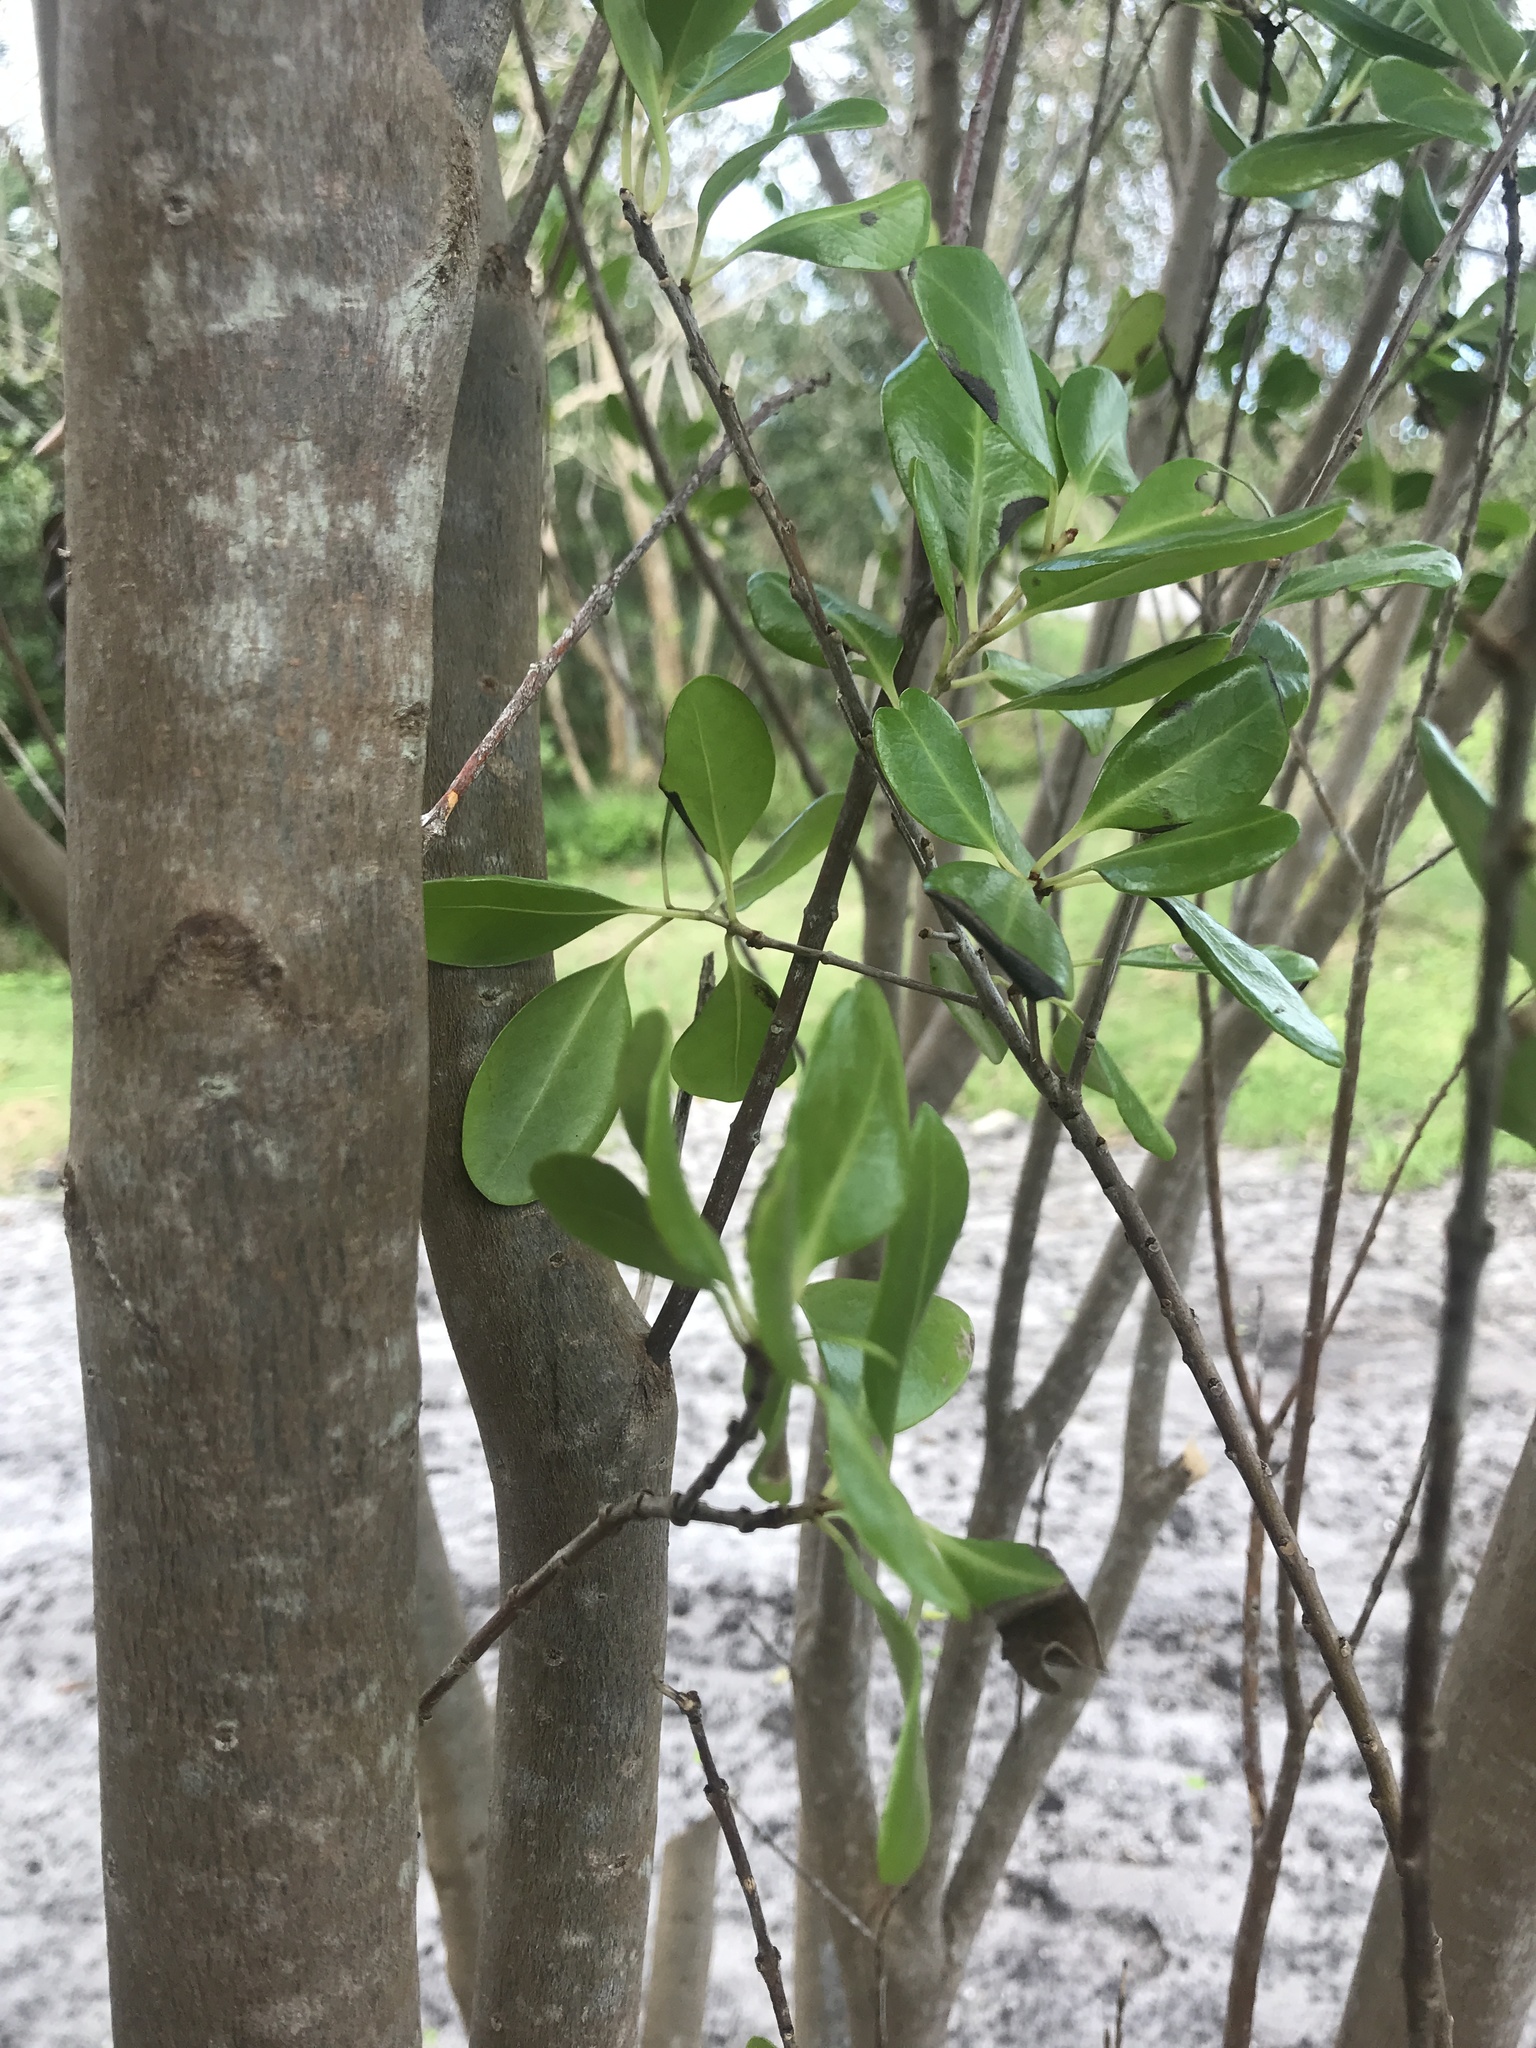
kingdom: Plantae
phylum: Tracheophyta
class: Magnoliopsida
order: Caryophyllales
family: Nyctaginaceae
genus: Guapira
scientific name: Guapira discolor
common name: Beeftree
